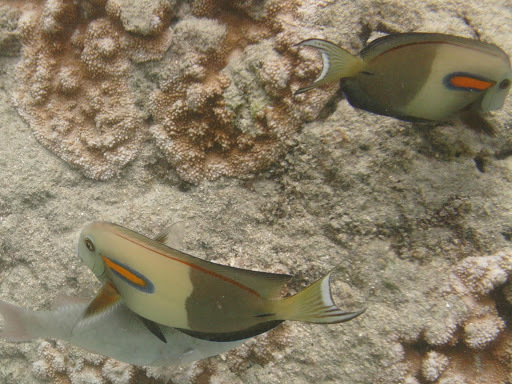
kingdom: Animalia
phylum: Chordata
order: Perciformes
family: Acanthuridae
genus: Acanthurus
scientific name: Acanthurus olivaceus
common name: Gendarme fish
